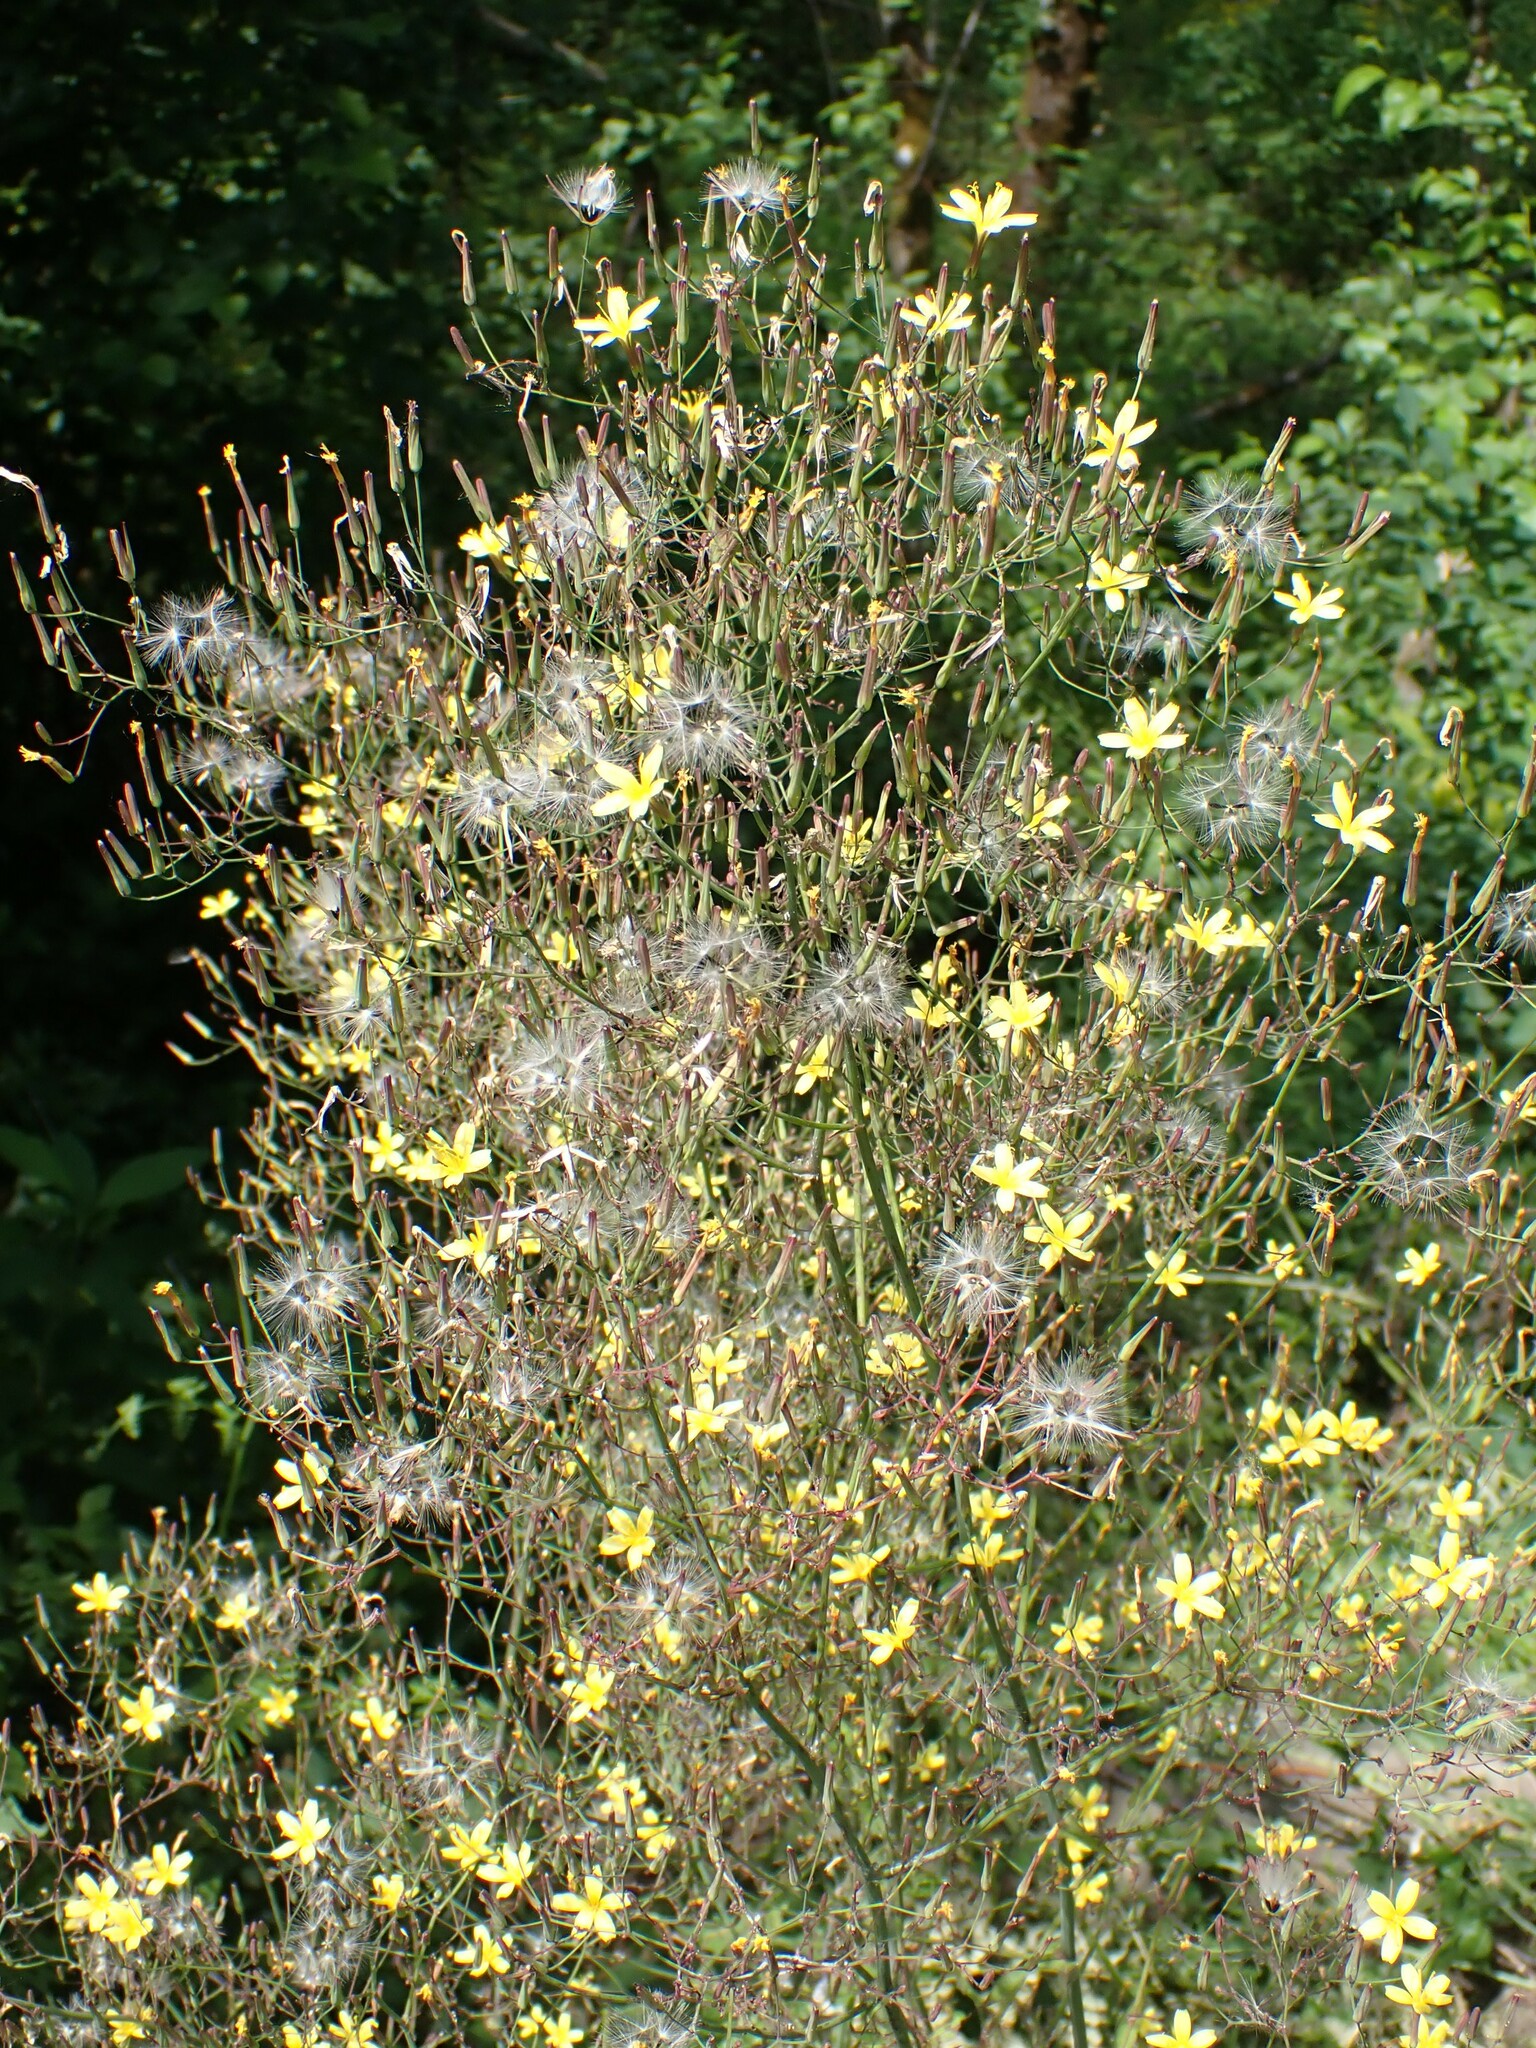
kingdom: Plantae
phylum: Tracheophyta
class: Magnoliopsida
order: Asterales
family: Asteraceae
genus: Mycelis
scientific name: Mycelis muralis
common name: Wall lettuce
